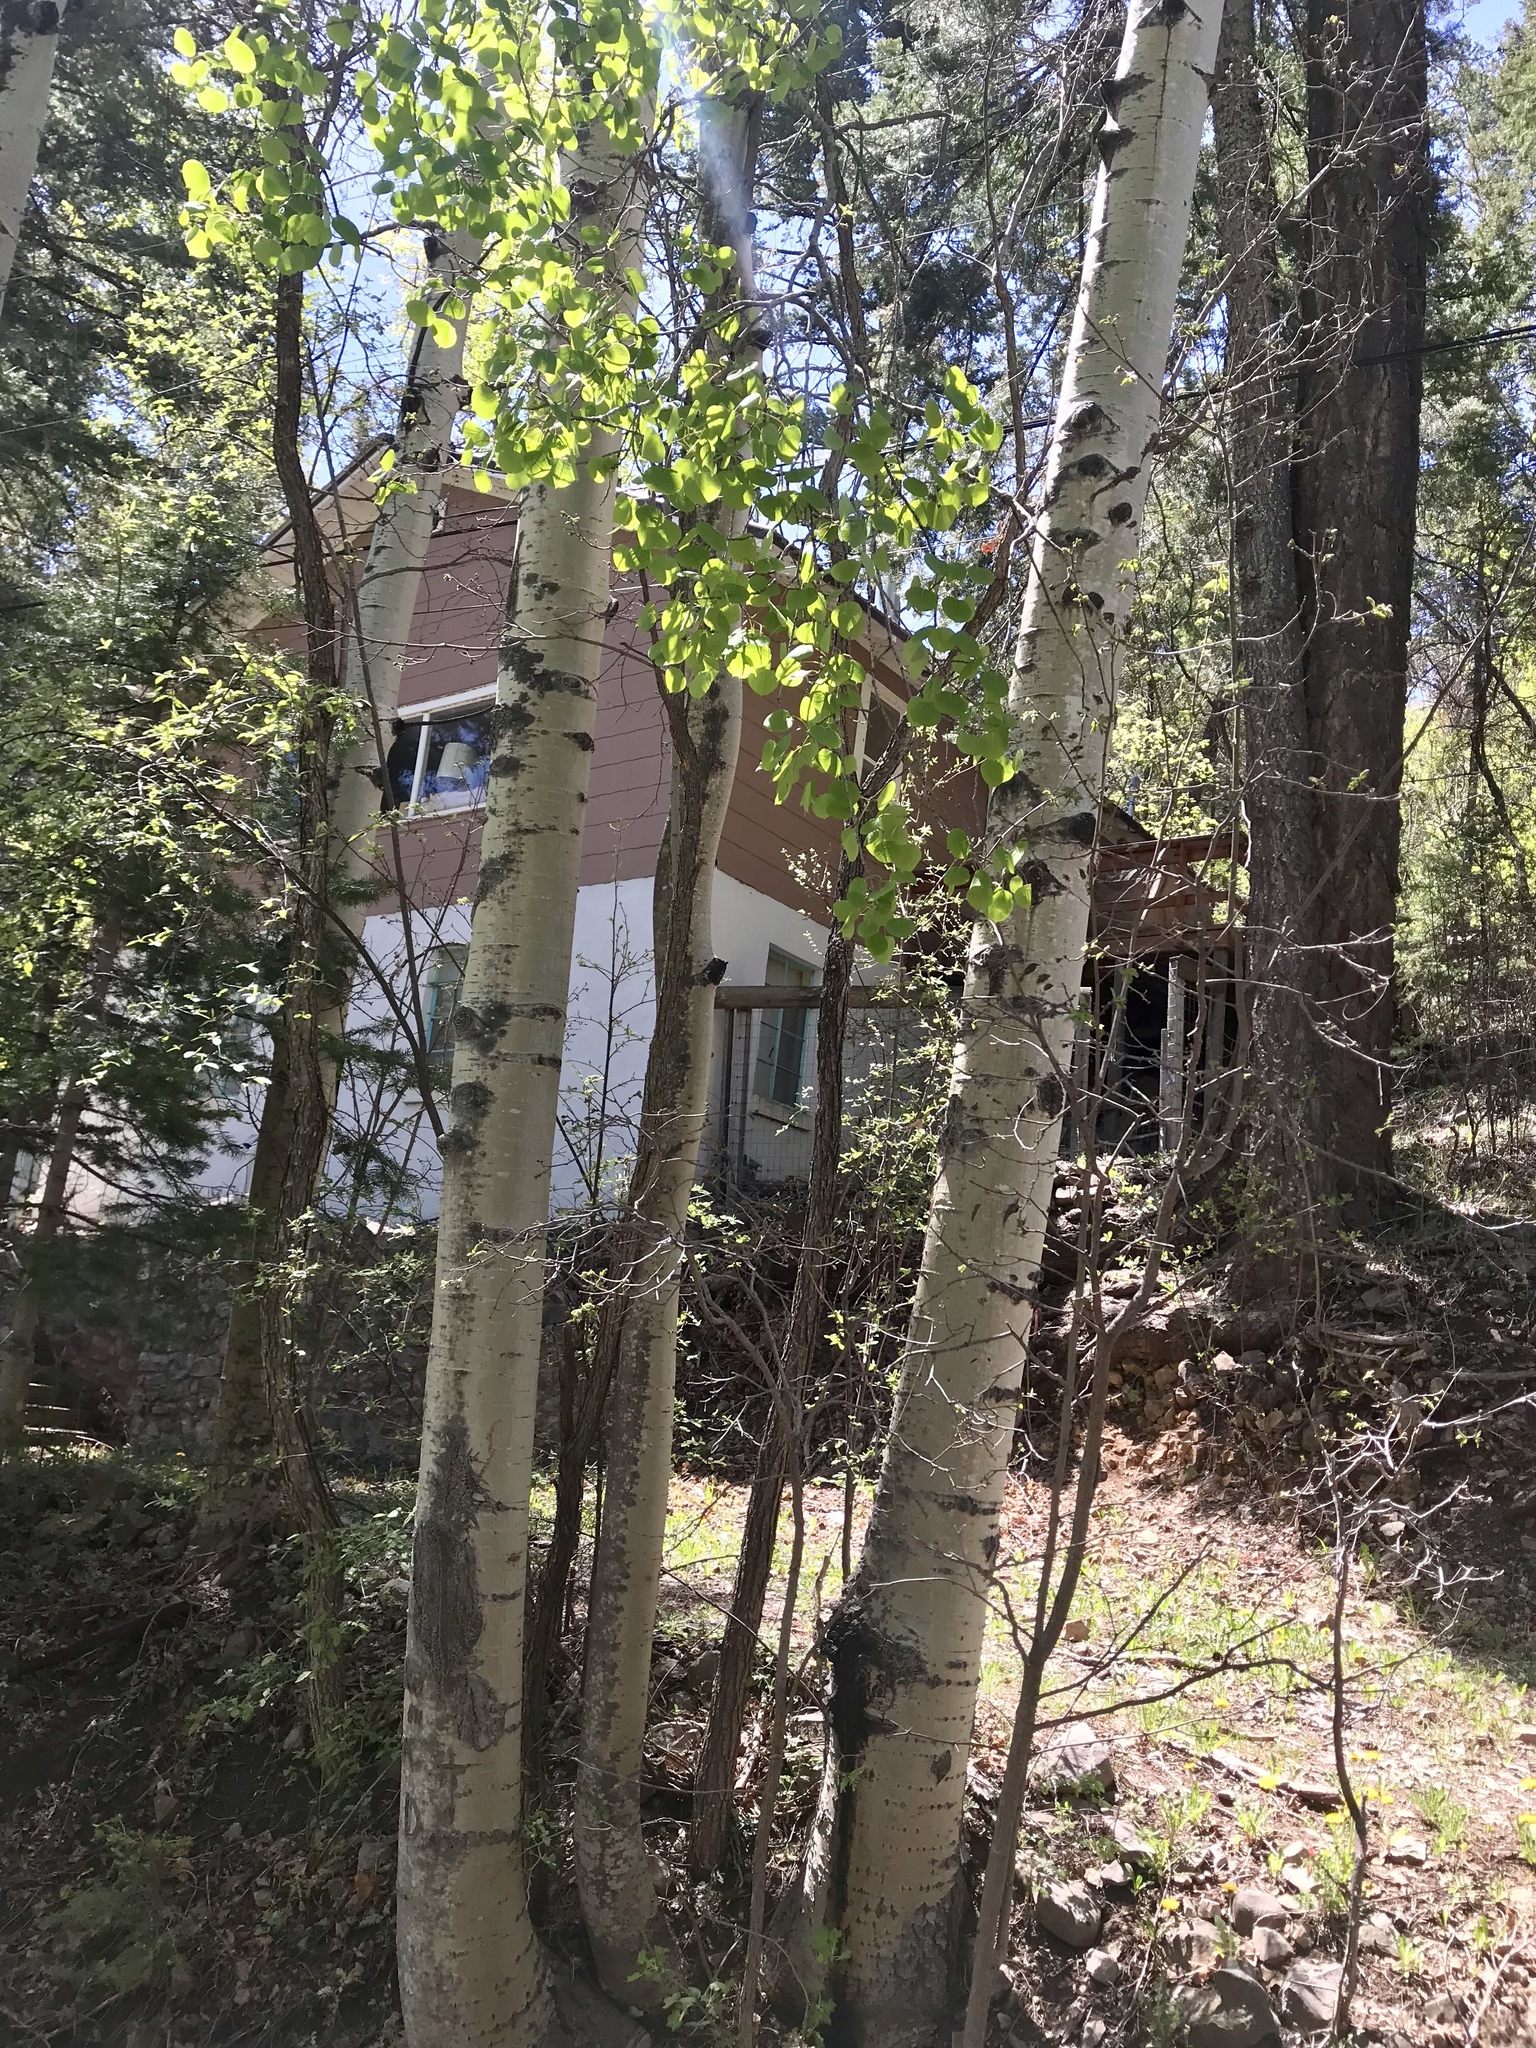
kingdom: Plantae
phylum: Tracheophyta
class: Magnoliopsida
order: Malpighiales
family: Salicaceae
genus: Populus
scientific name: Populus tremuloides
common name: Quaking aspen
